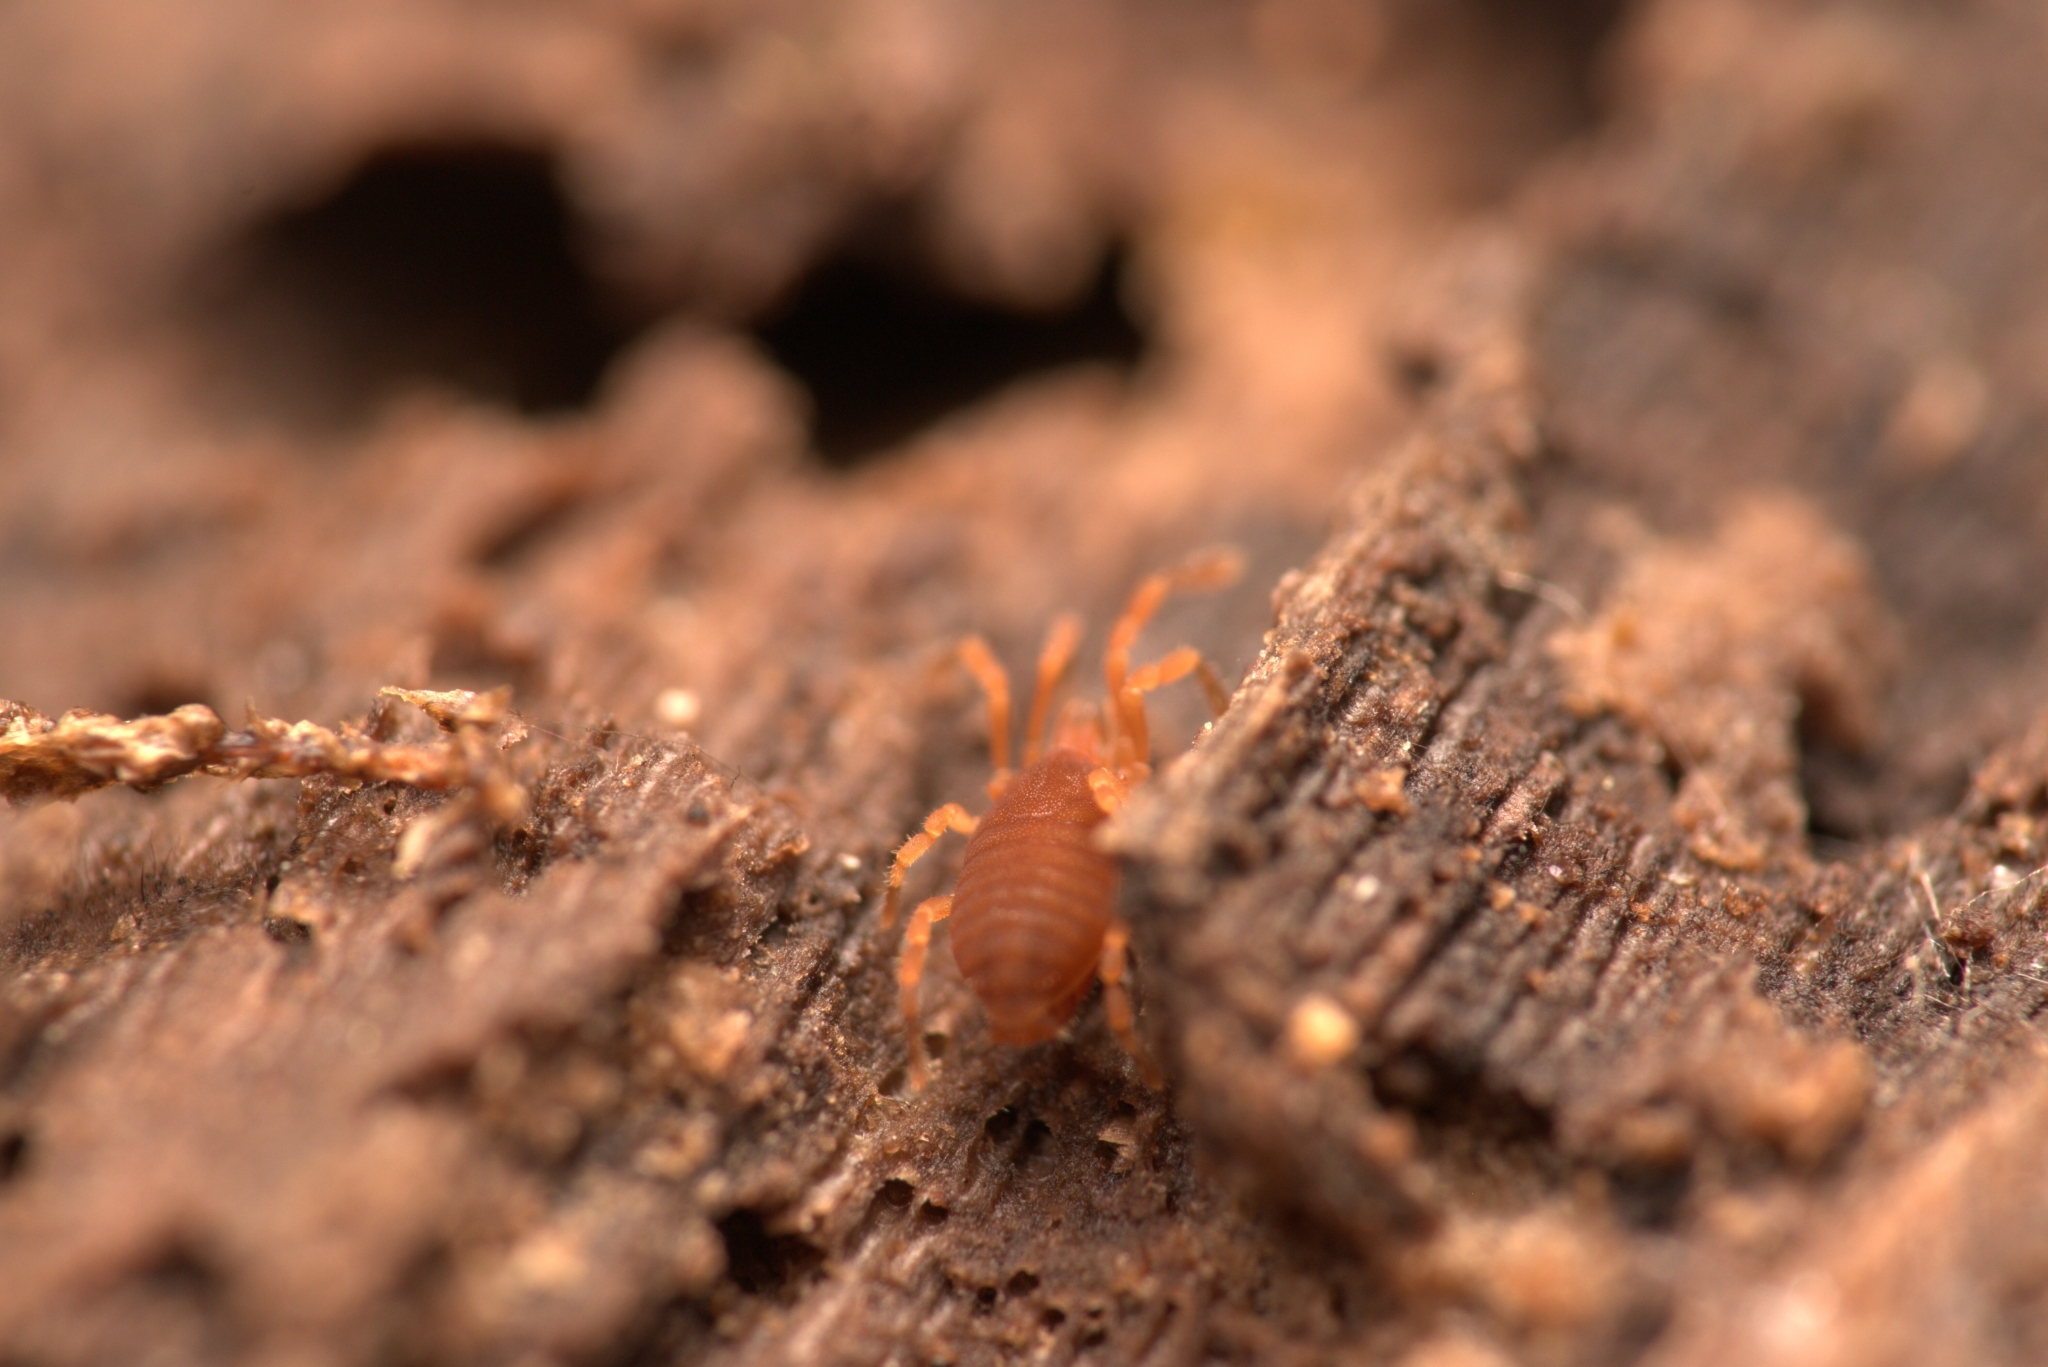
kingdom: Animalia
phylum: Arthropoda
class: Arachnida
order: Opiliones
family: Sironidae
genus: Siro
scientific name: Siro rubens
